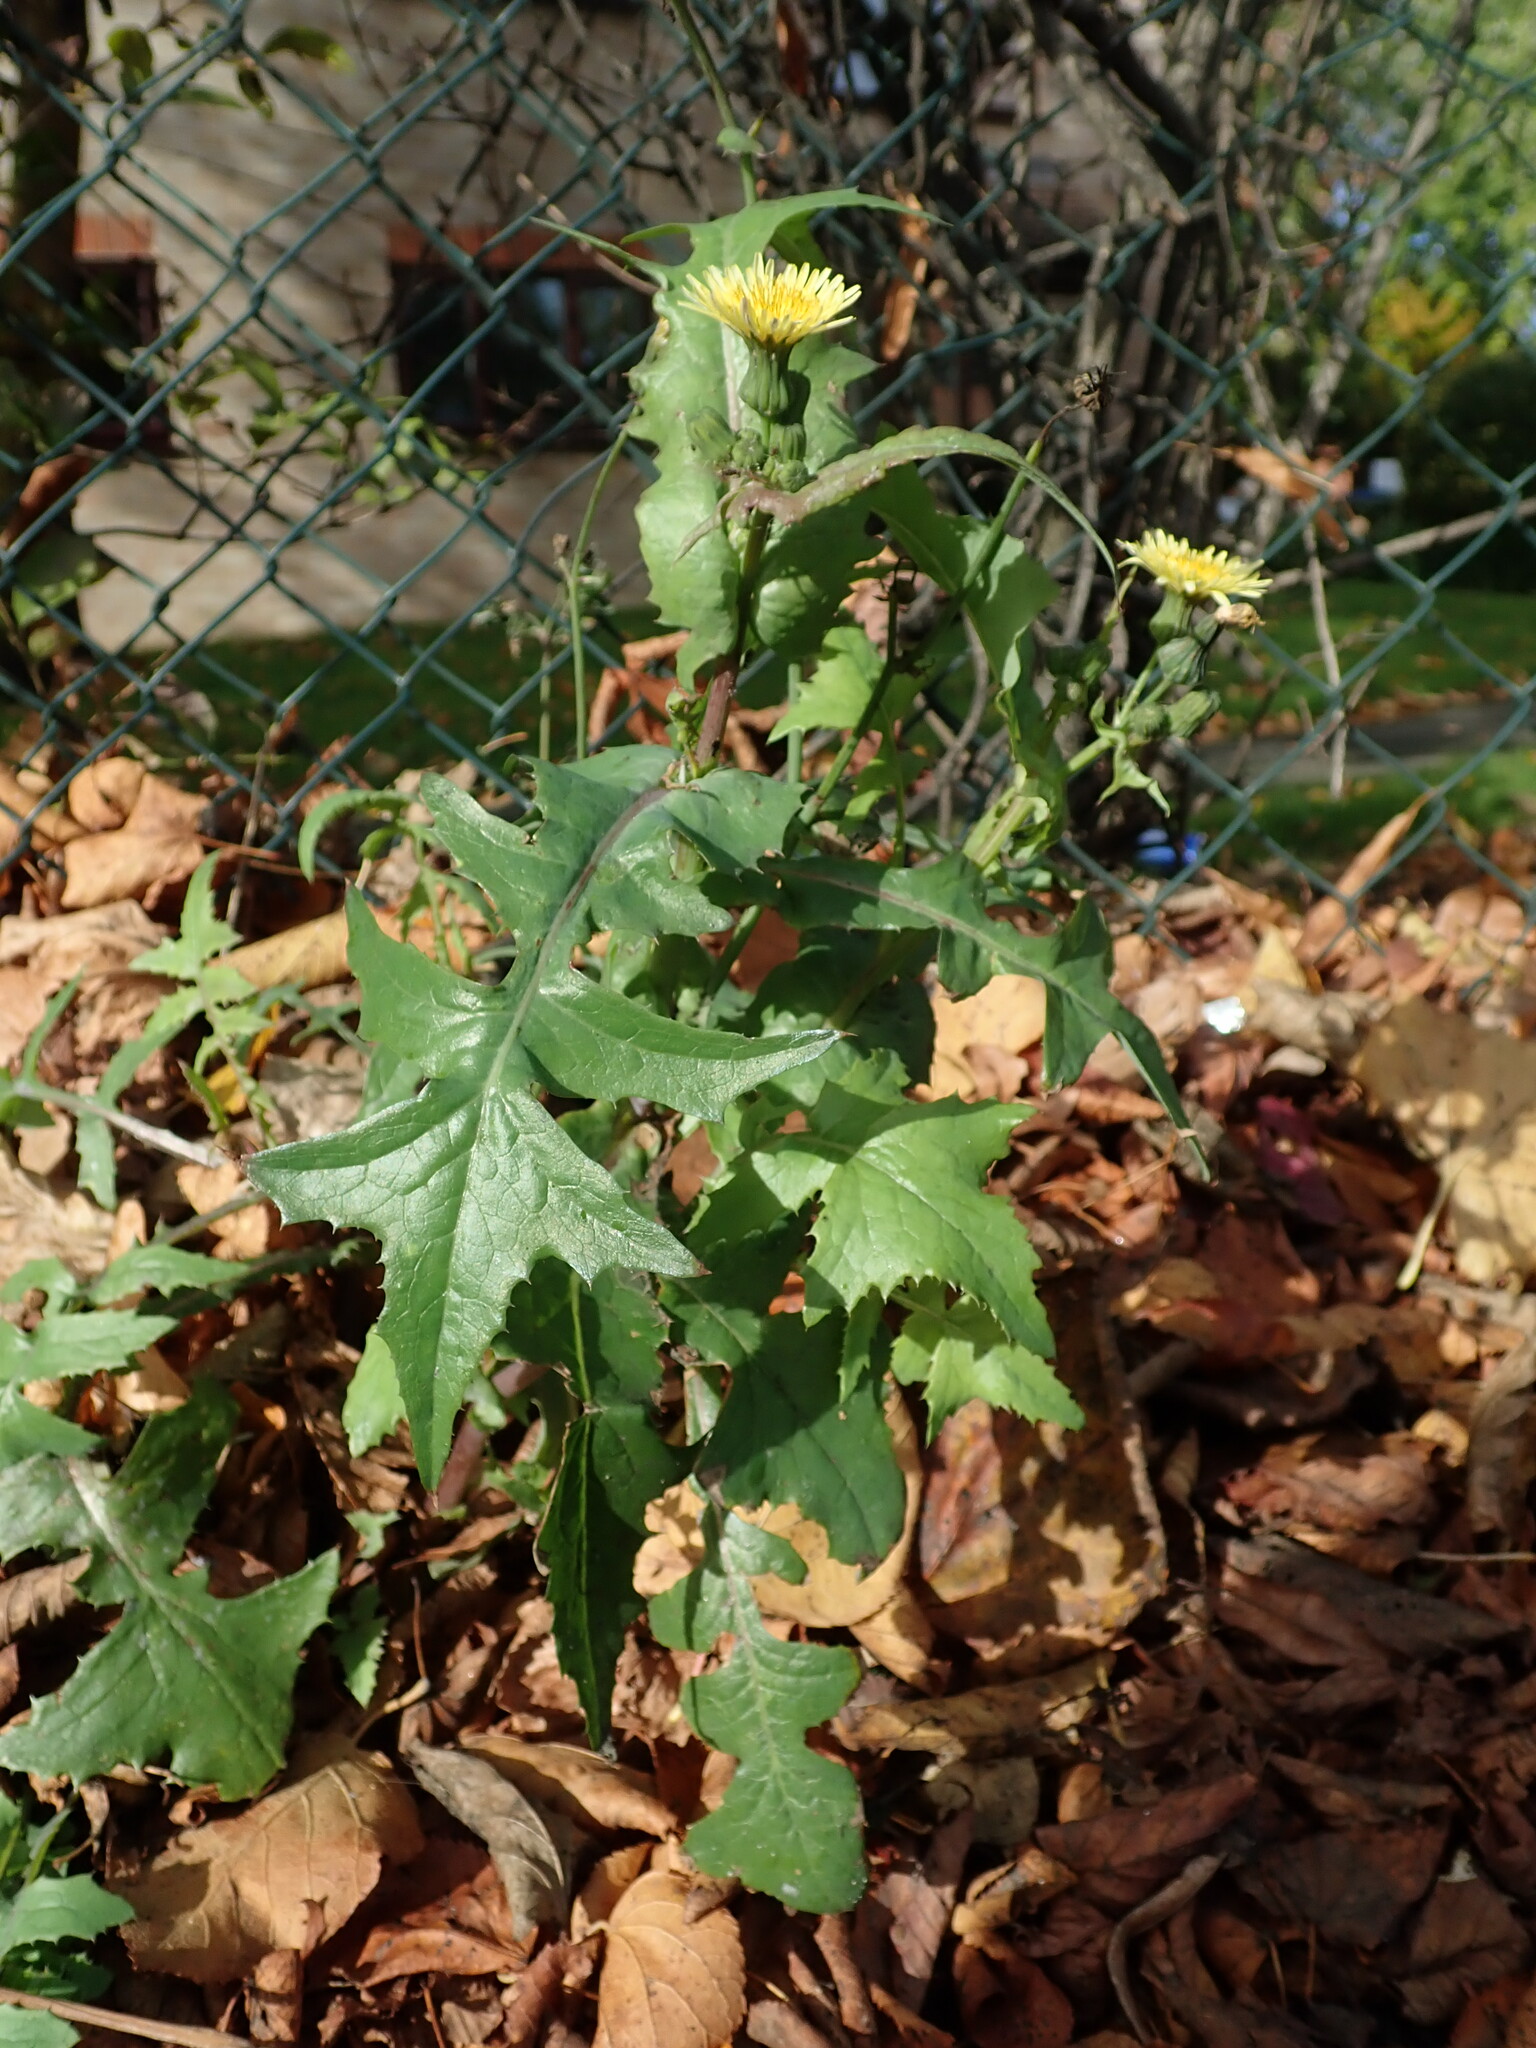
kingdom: Plantae
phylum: Tracheophyta
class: Magnoliopsida
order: Asterales
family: Asteraceae
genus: Sonchus
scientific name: Sonchus oleraceus
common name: Common sowthistle
